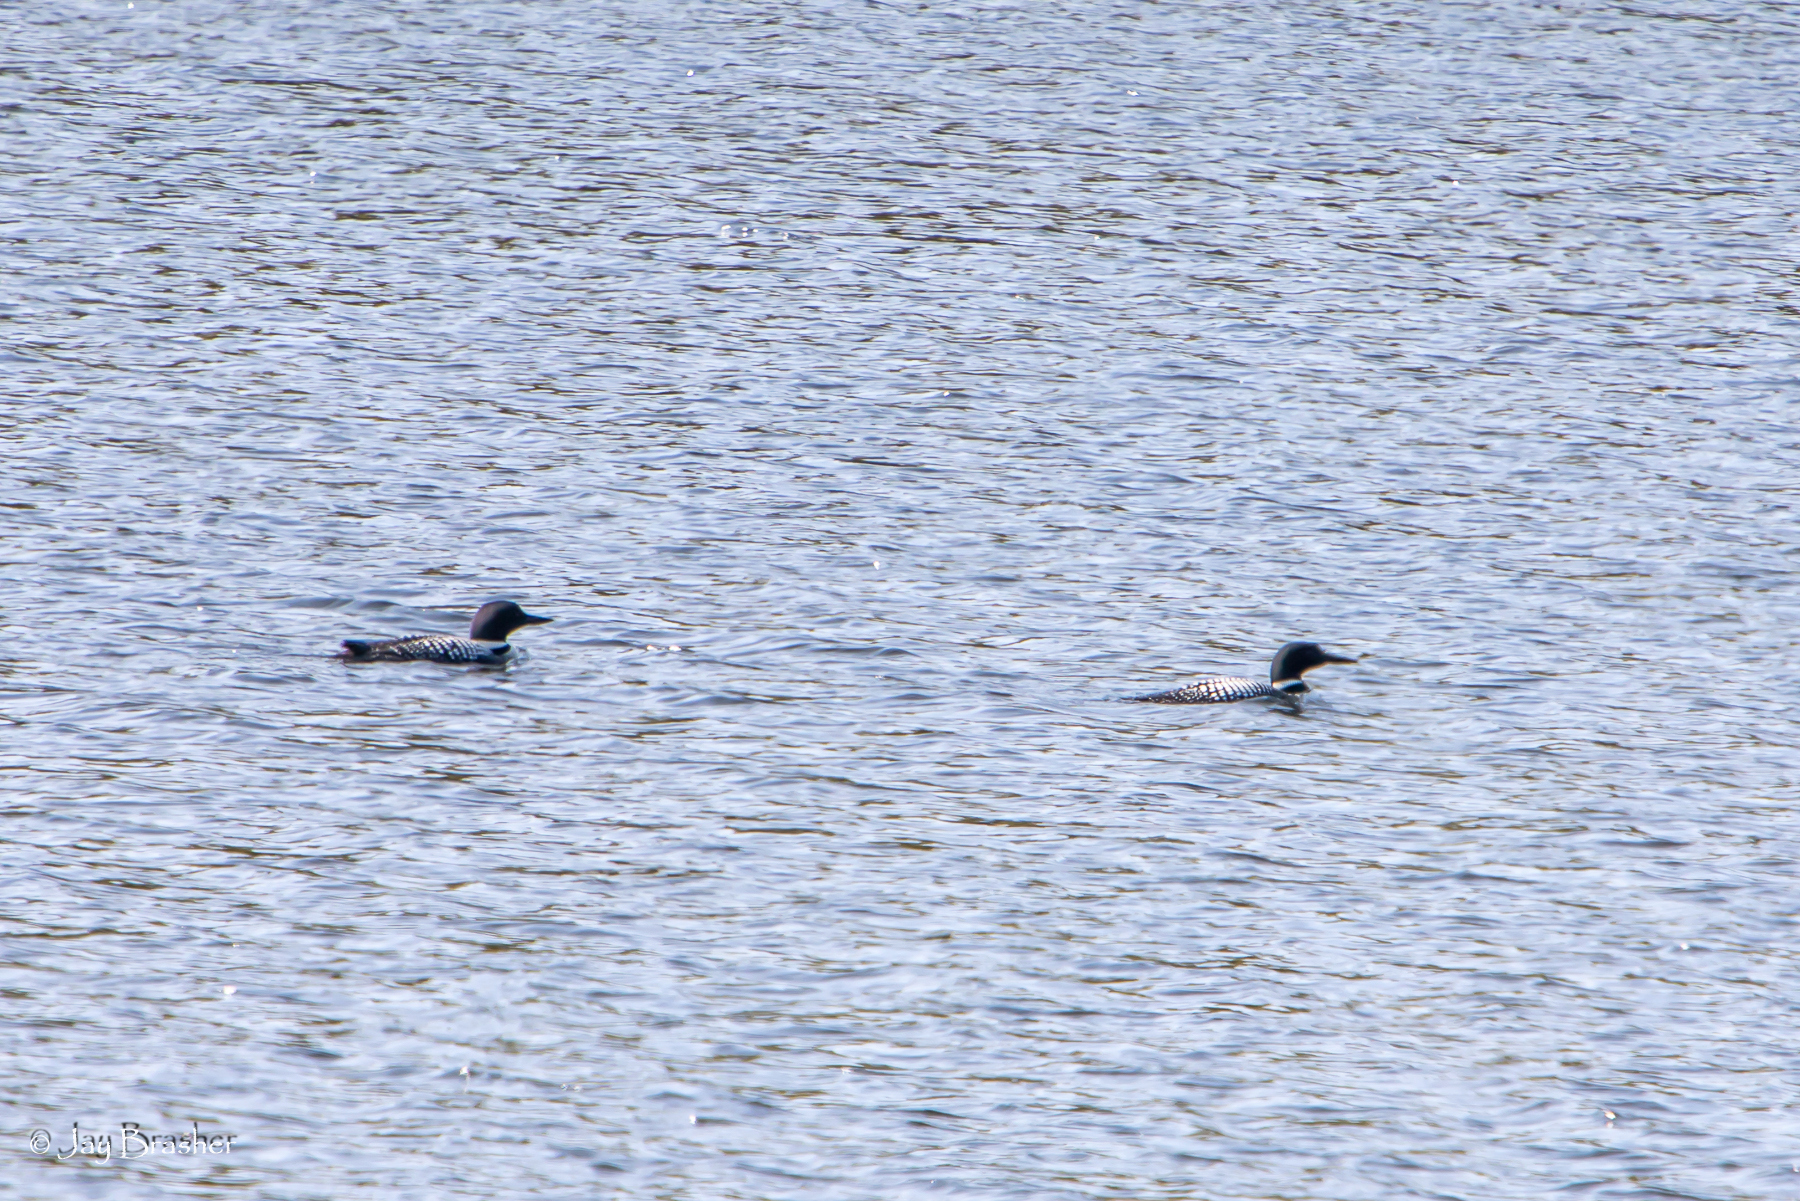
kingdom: Animalia
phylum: Chordata
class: Aves
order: Gaviiformes
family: Gaviidae
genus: Gavia
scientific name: Gavia immer
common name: Common loon
